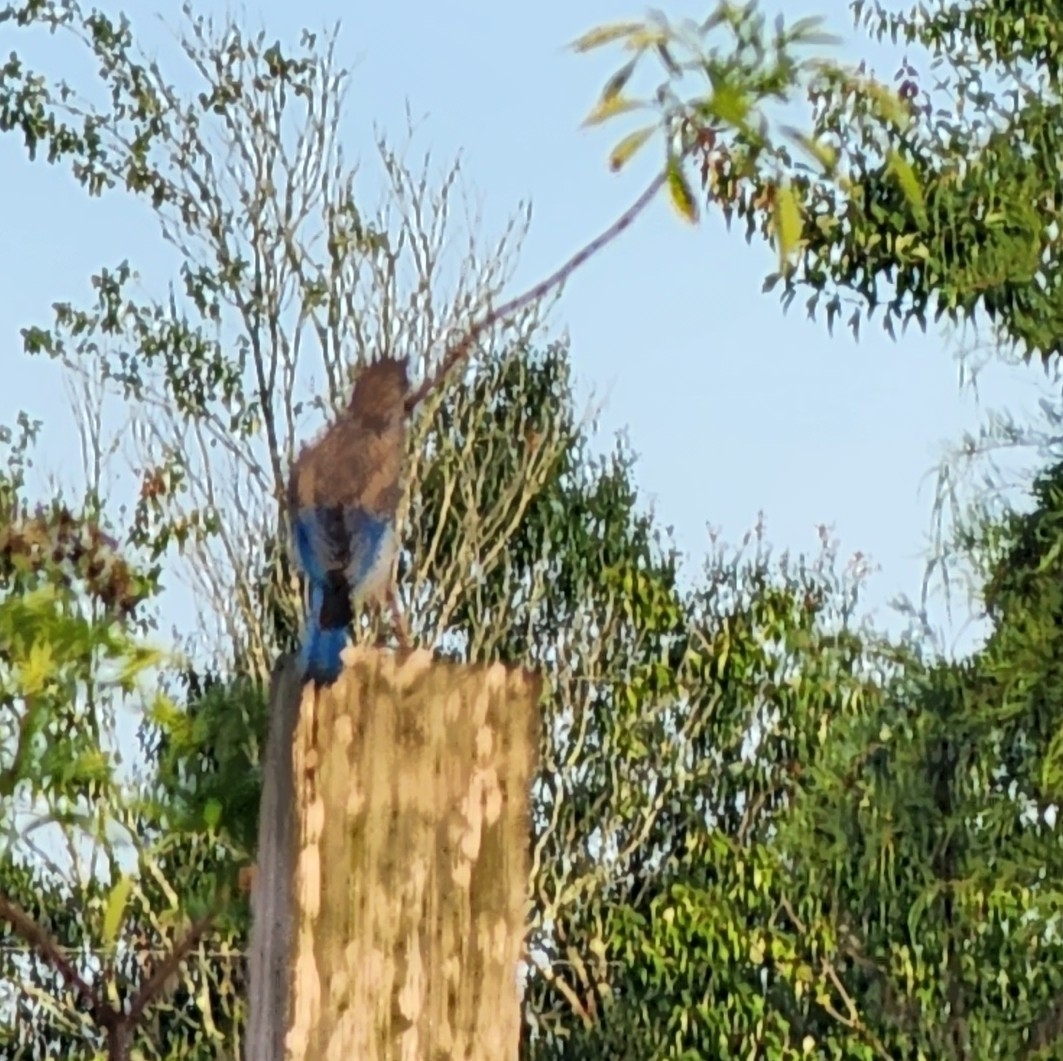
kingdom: Animalia
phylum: Chordata
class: Aves
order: Passeriformes
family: Turdidae
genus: Sialia
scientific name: Sialia sialis
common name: Eastern bluebird
